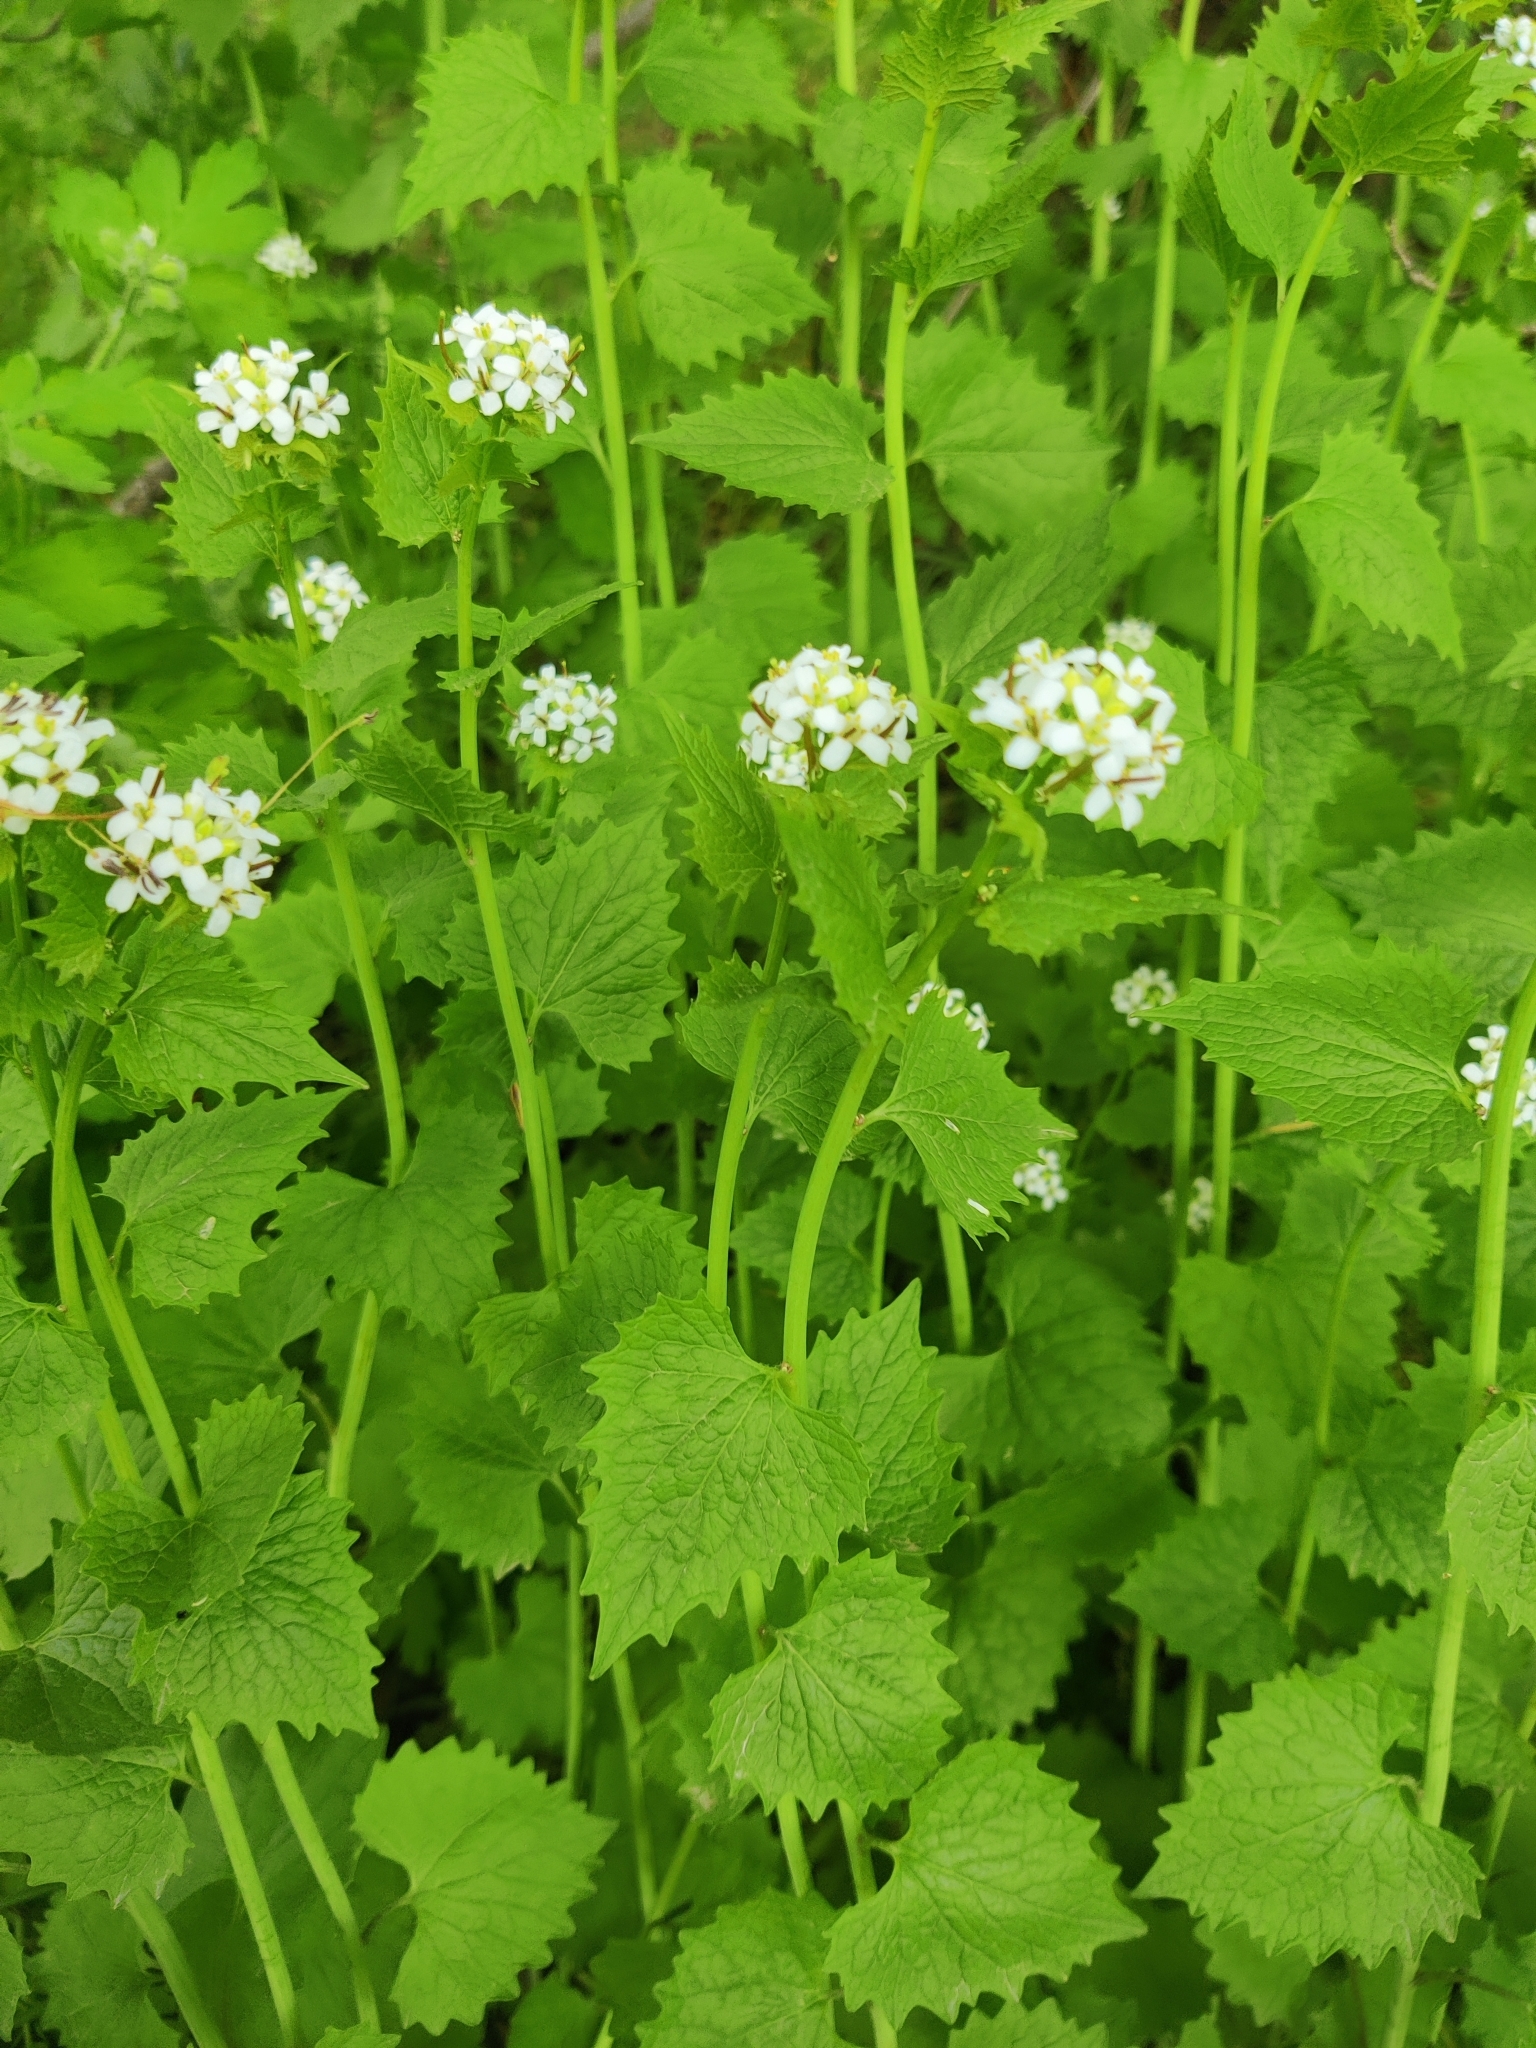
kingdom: Plantae
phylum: Tracheophyta
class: Magnoliopsida
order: Brassicales
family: Brassicaceae
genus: Alliaria
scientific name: Alliaria petiolata
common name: Garlic mustard
